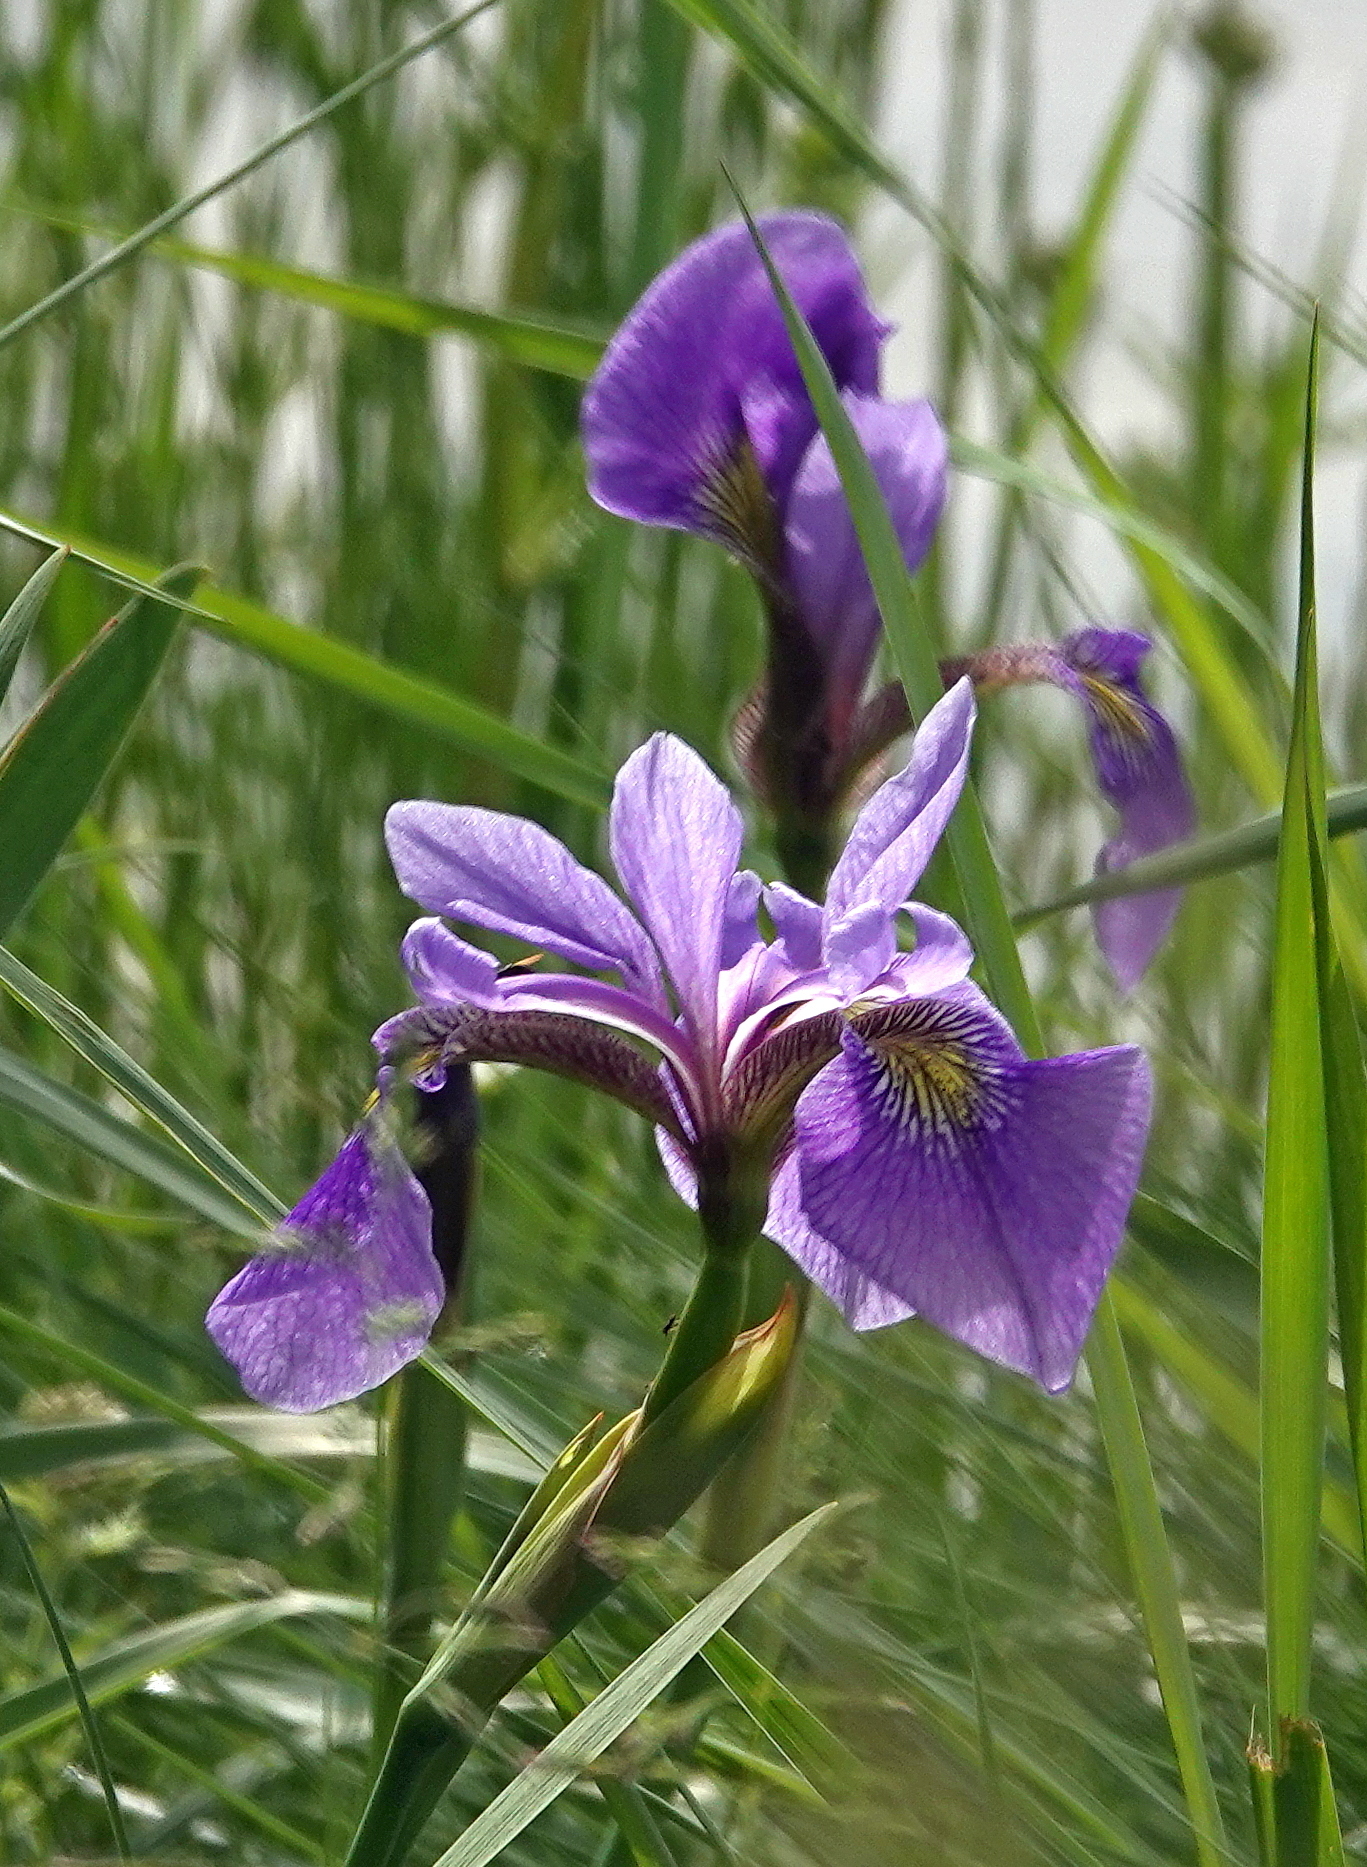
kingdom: Plantae
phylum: Tracheophyta
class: Liliopsida
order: Asparagales
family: Iridaceae
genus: Iris
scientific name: Iris versicolor
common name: Purple iris
